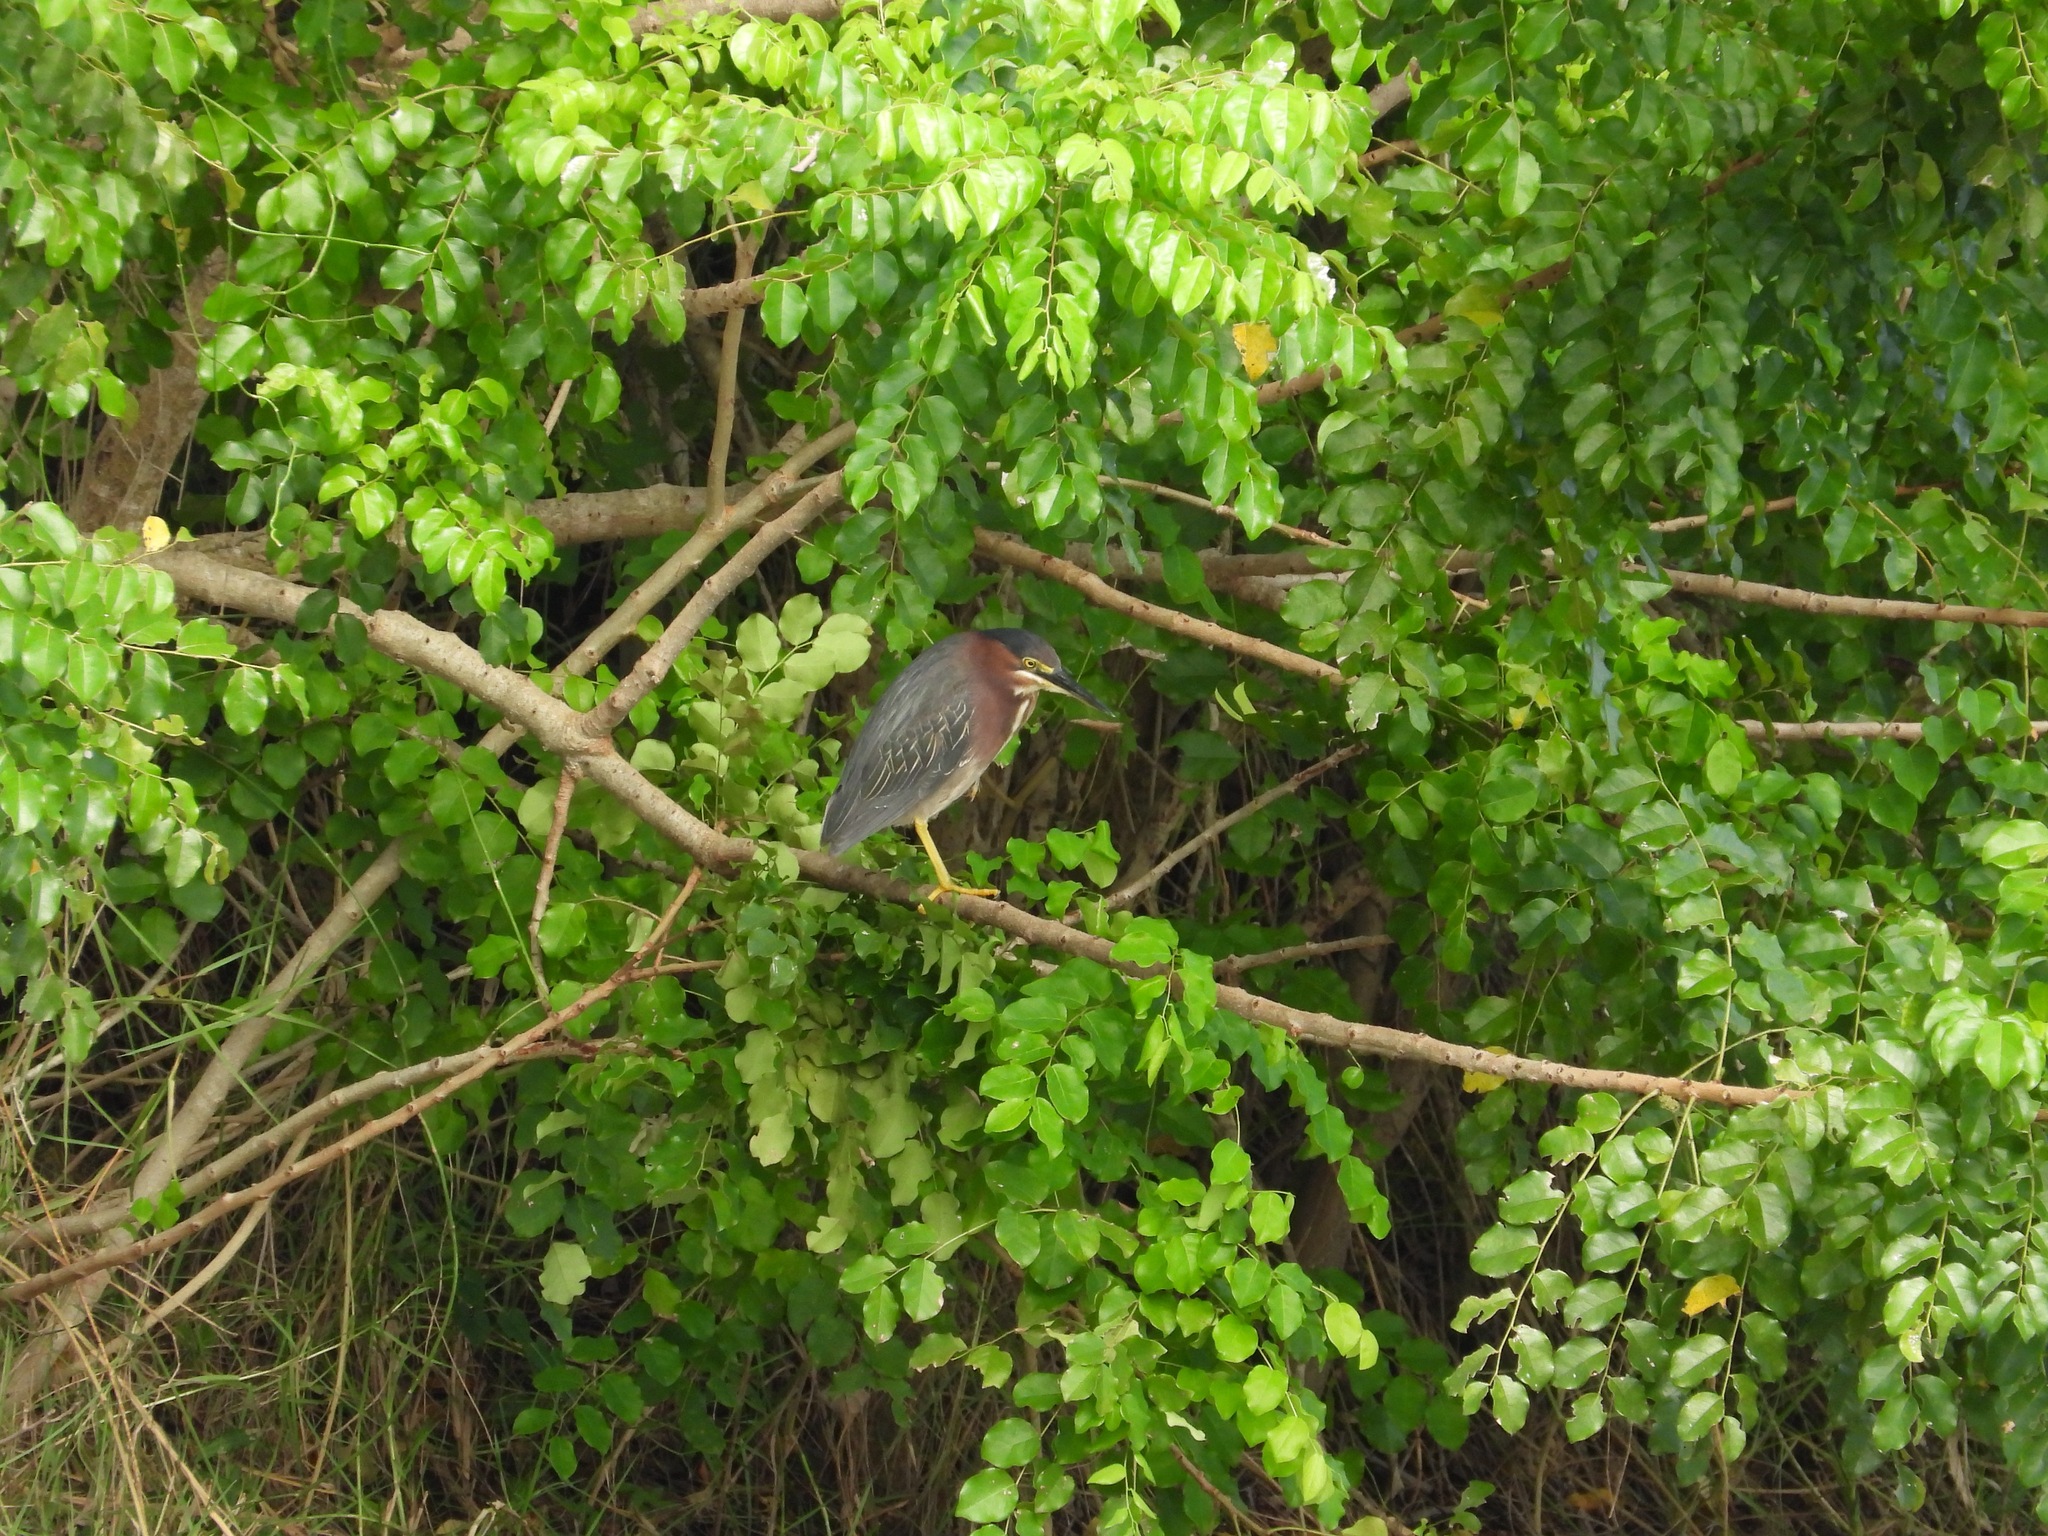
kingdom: Animalia
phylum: Chordata
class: Aves
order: Pelecaniformes
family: Ardeidae
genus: Butorides
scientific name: Butorides virescens
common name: Green heron
